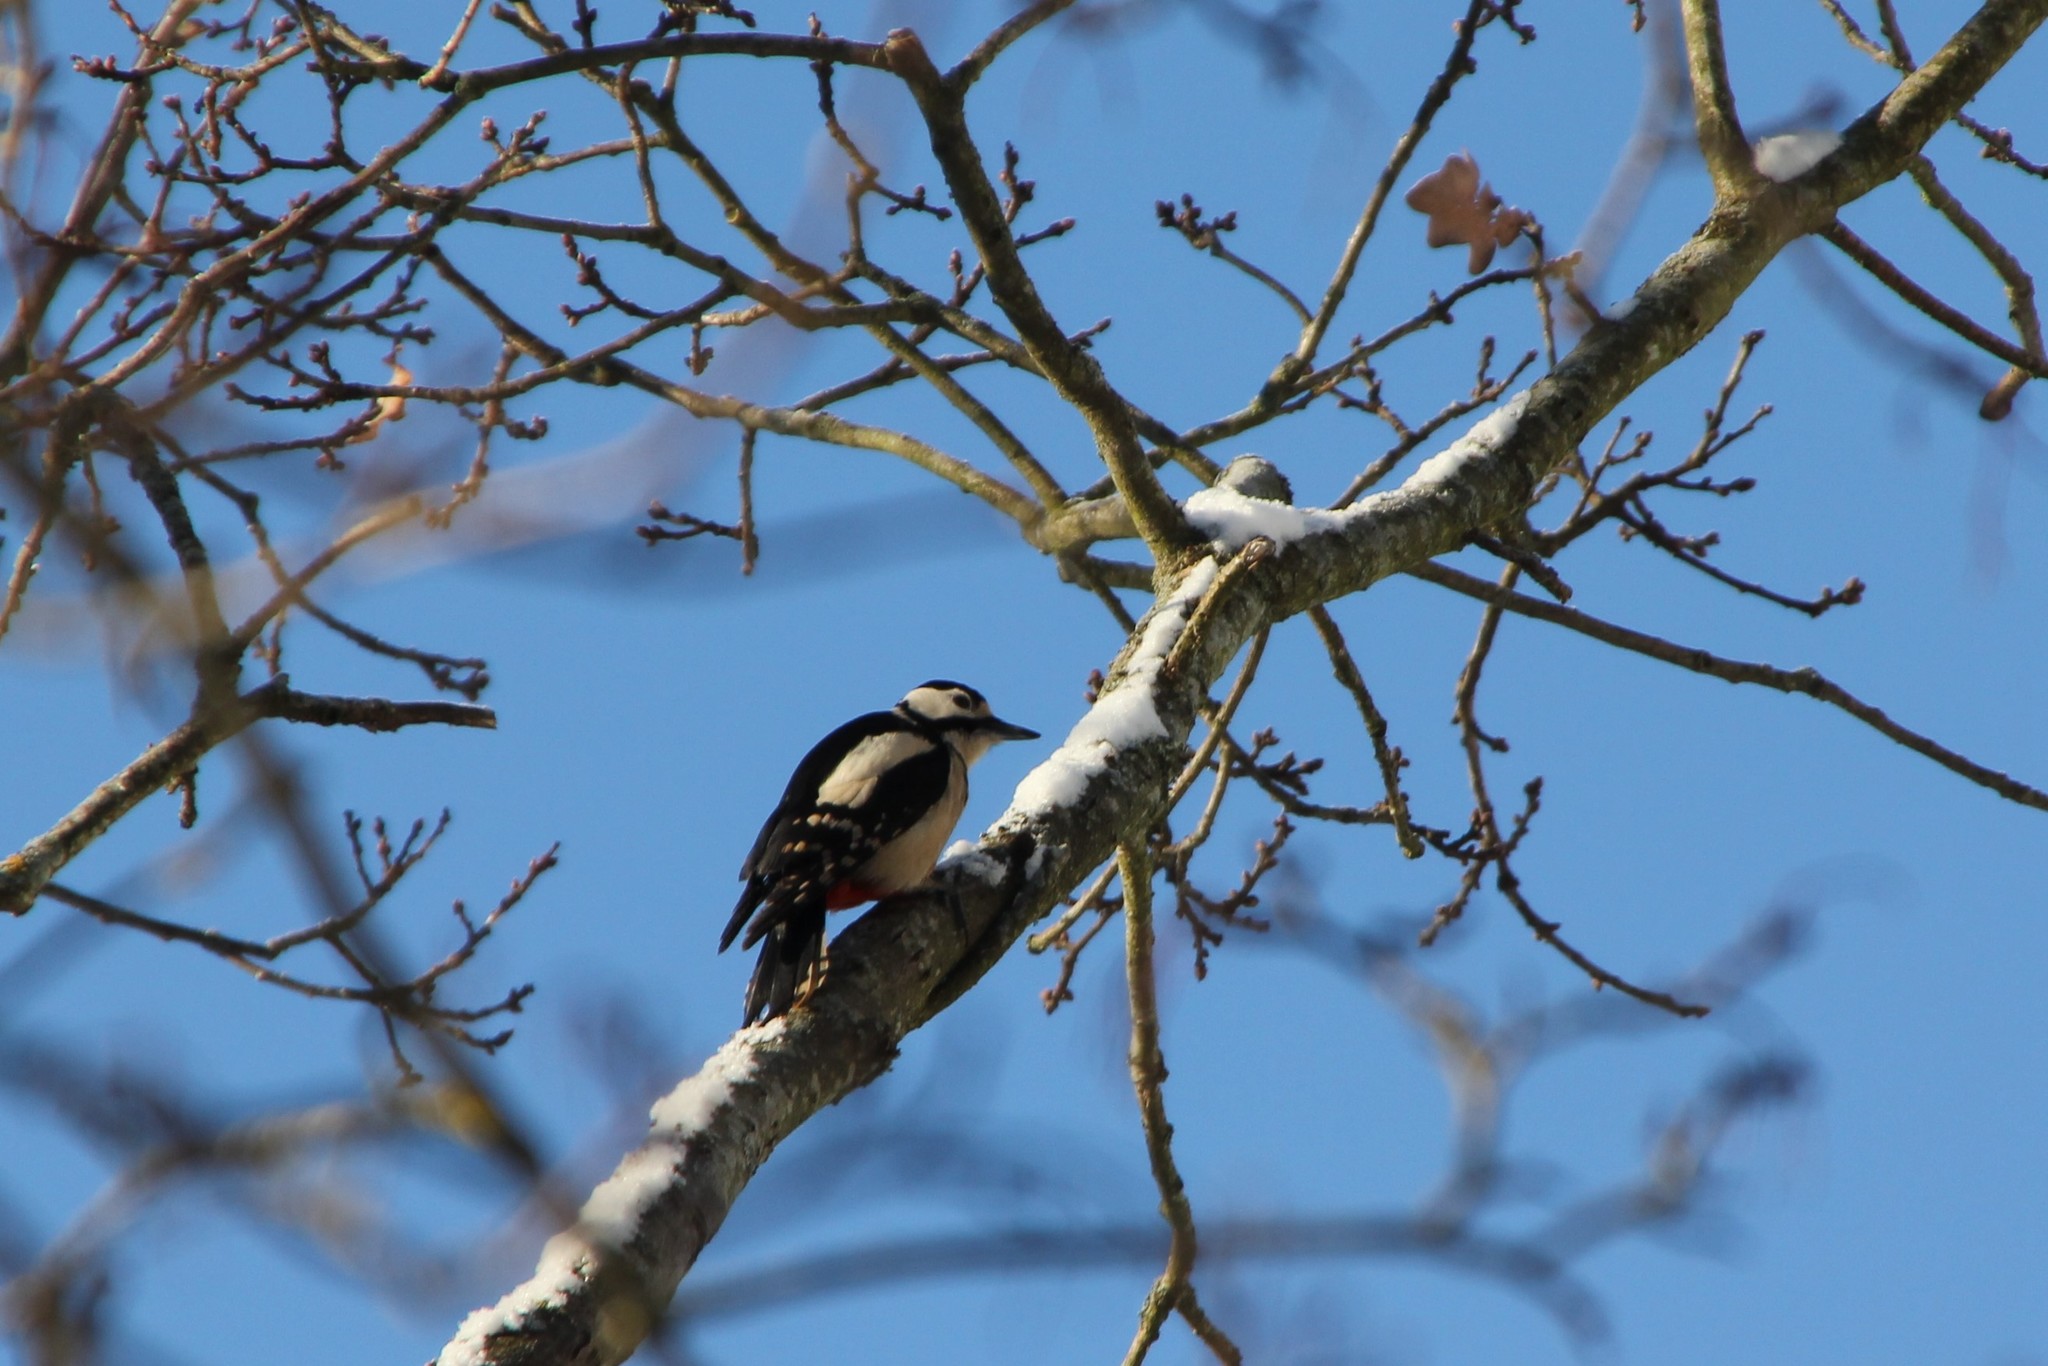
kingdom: Animalia
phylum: Chordata
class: Aves
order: Piciformes
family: Picidae
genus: Dendrocopos
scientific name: Dendrocopos major
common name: Great spotted woodpecker
